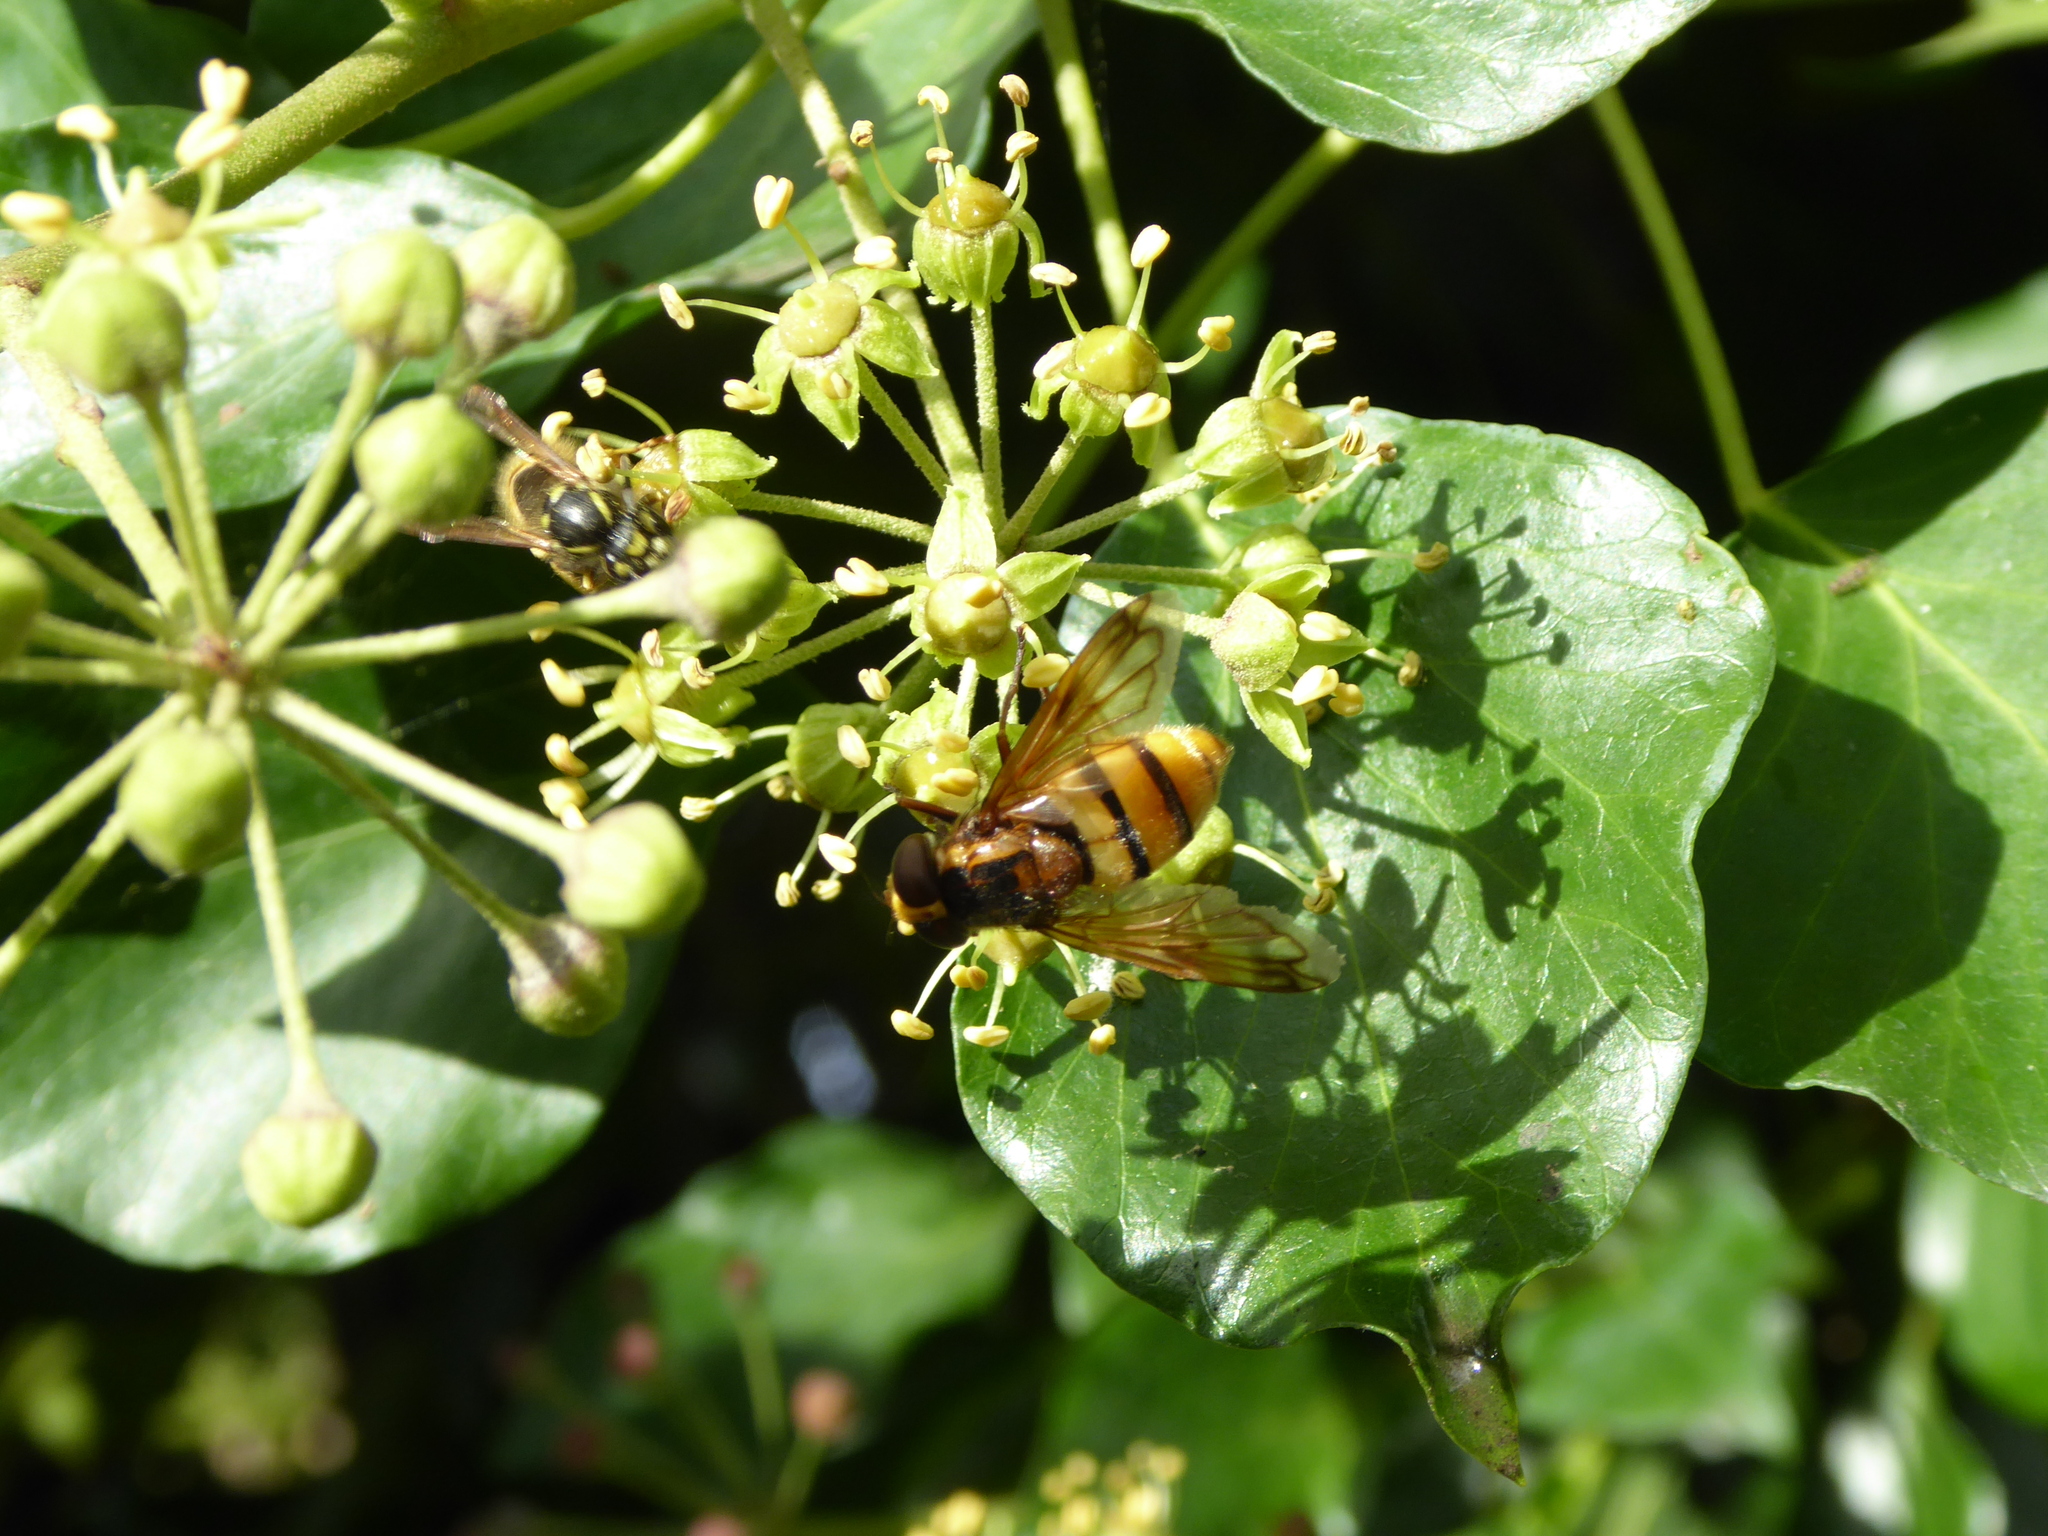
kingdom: Animalia
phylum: Arthropoda
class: Insecta
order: Diptera
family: Syrphidae
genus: Volucella
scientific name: Volucella inanis
